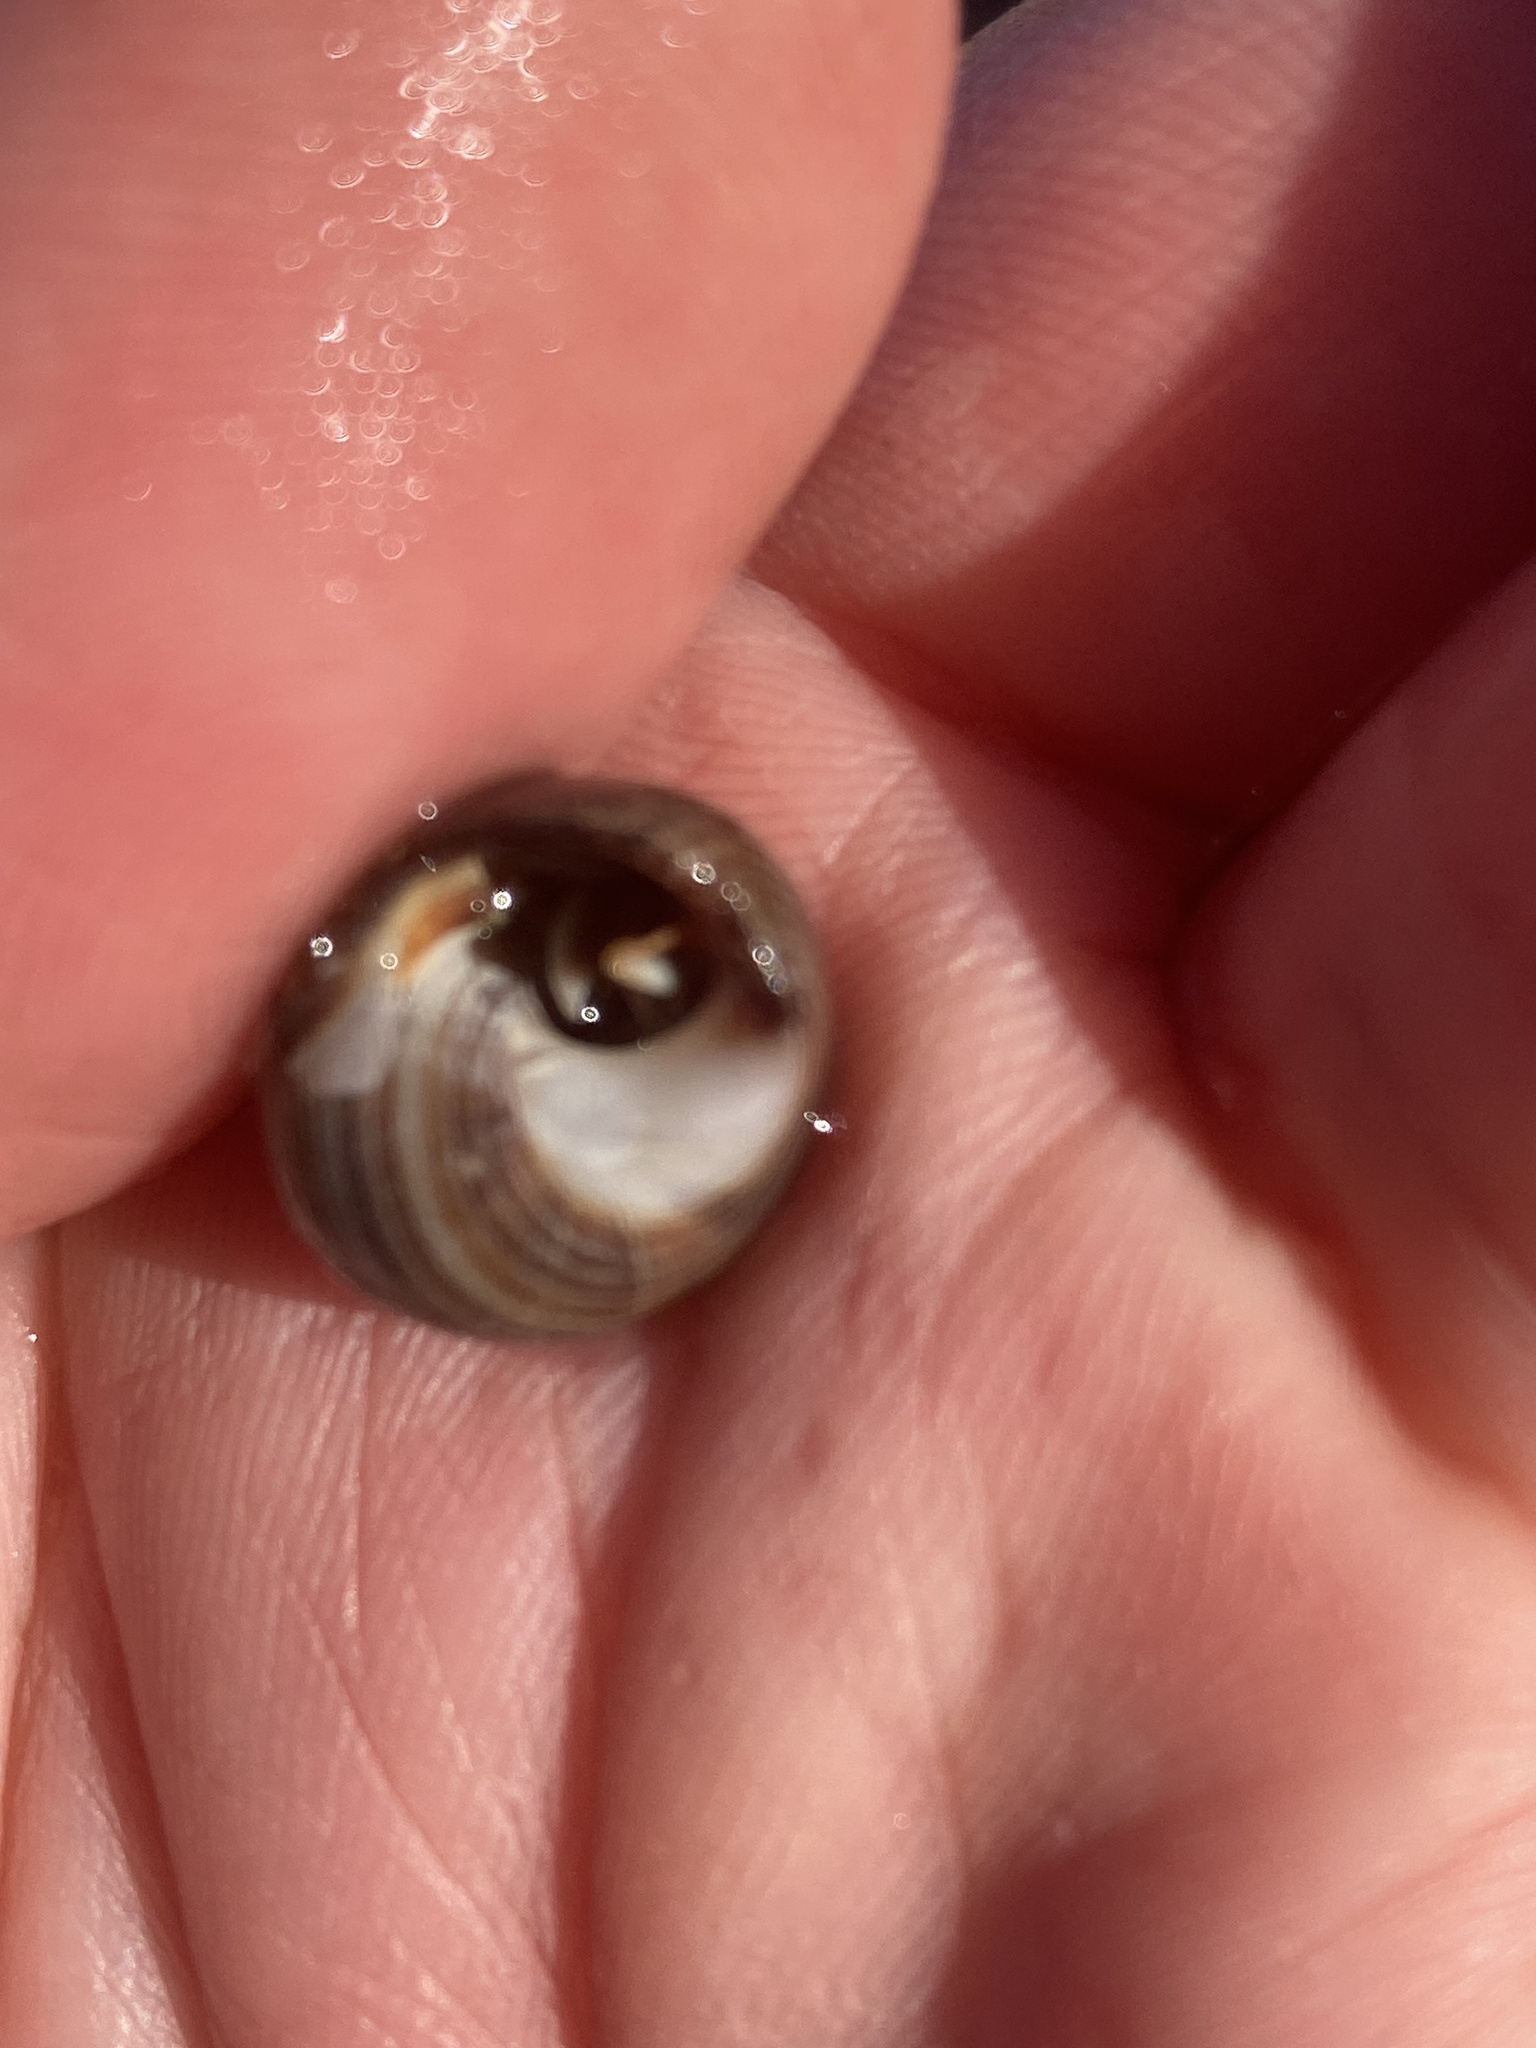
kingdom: Animalia
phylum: Arthropoda
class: Malacostraca
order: Decapoda
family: Paguridae
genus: Pagurus
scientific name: Pagurus bernhardus
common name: Hermit crab
